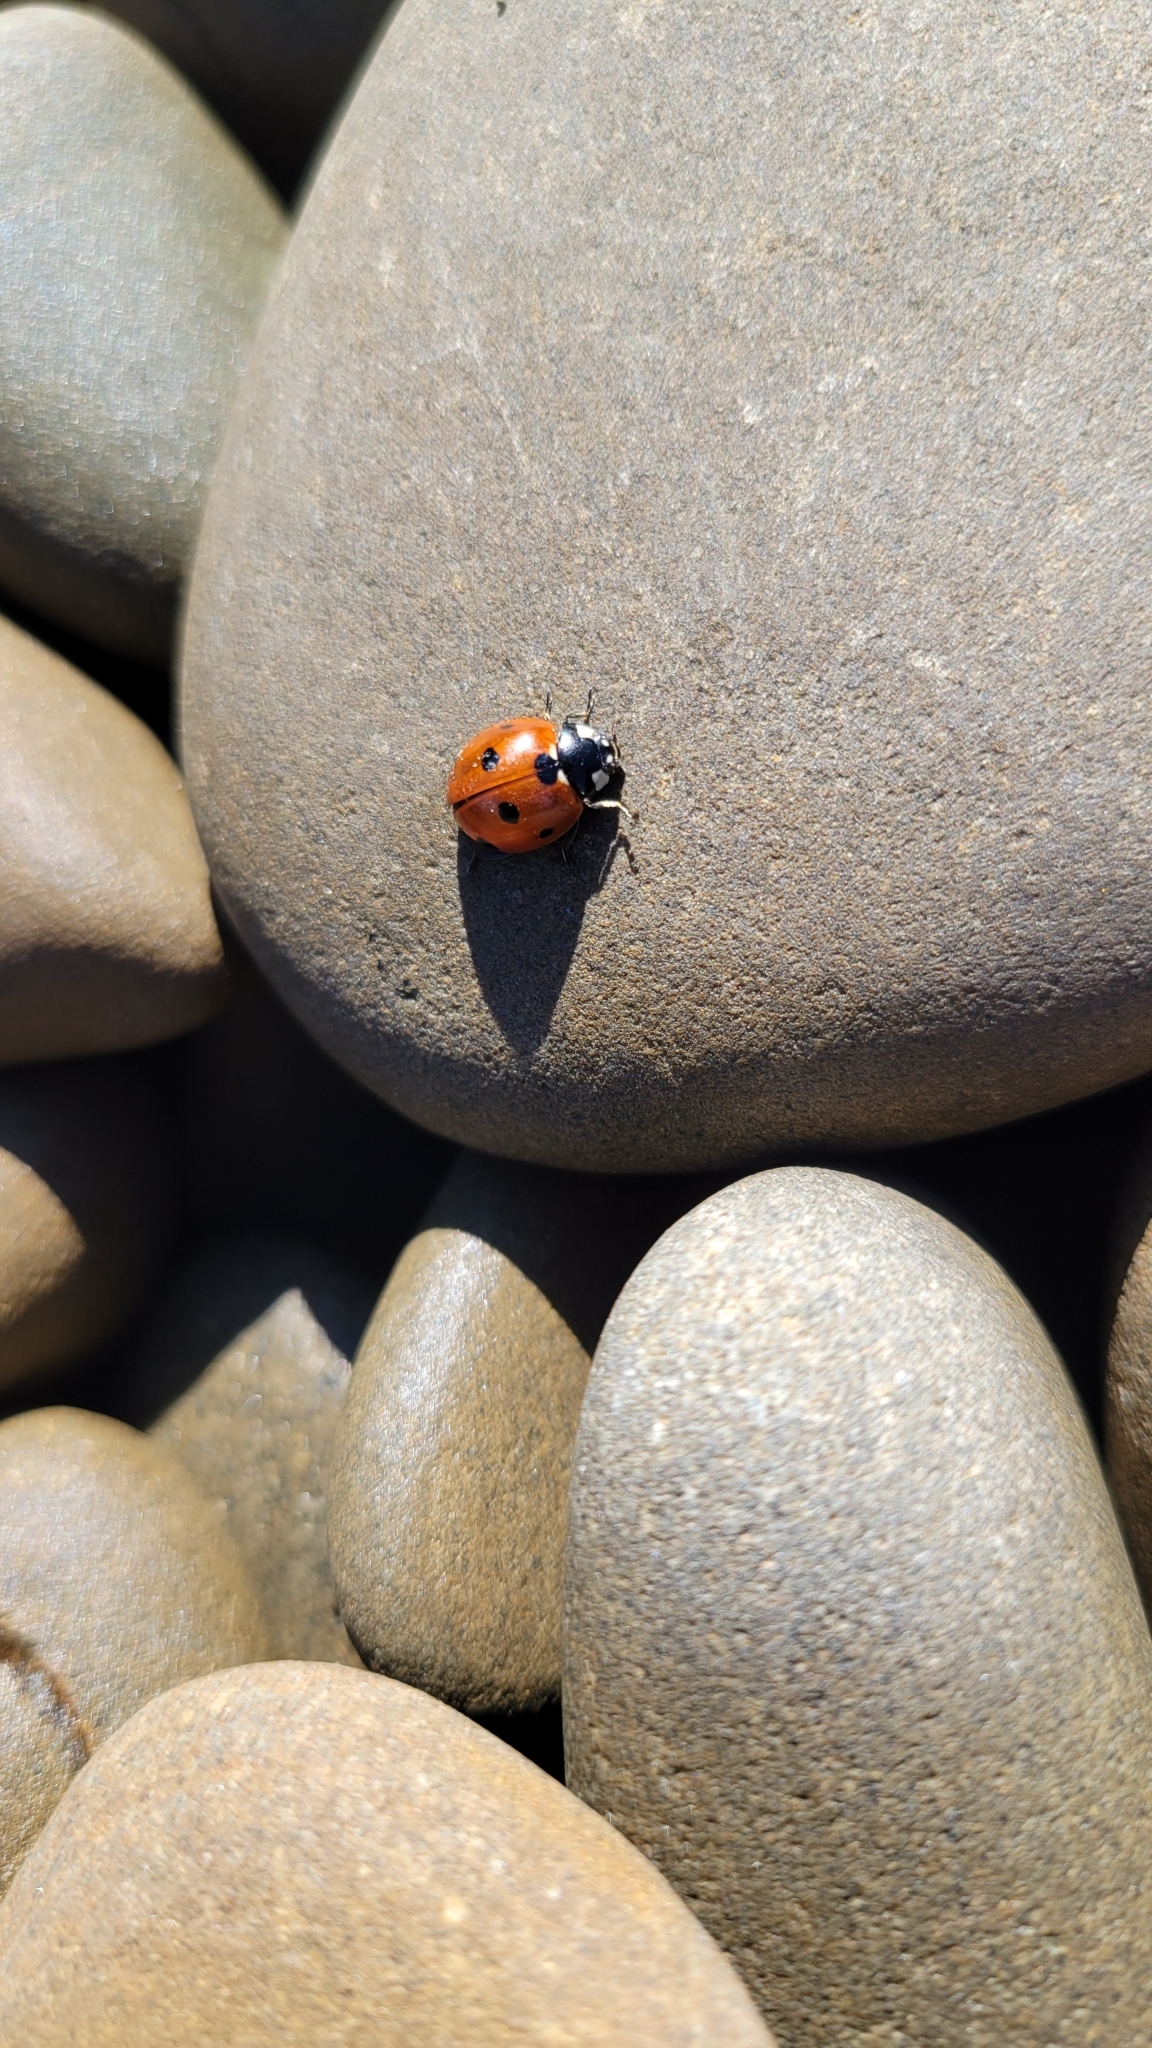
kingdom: Animalia
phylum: Arthropoda
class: Insecta
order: Coleoptera
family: Coccinellidae
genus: Coccinella
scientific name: Coccinella septempunctata
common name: Sevenspotted lady beetle
